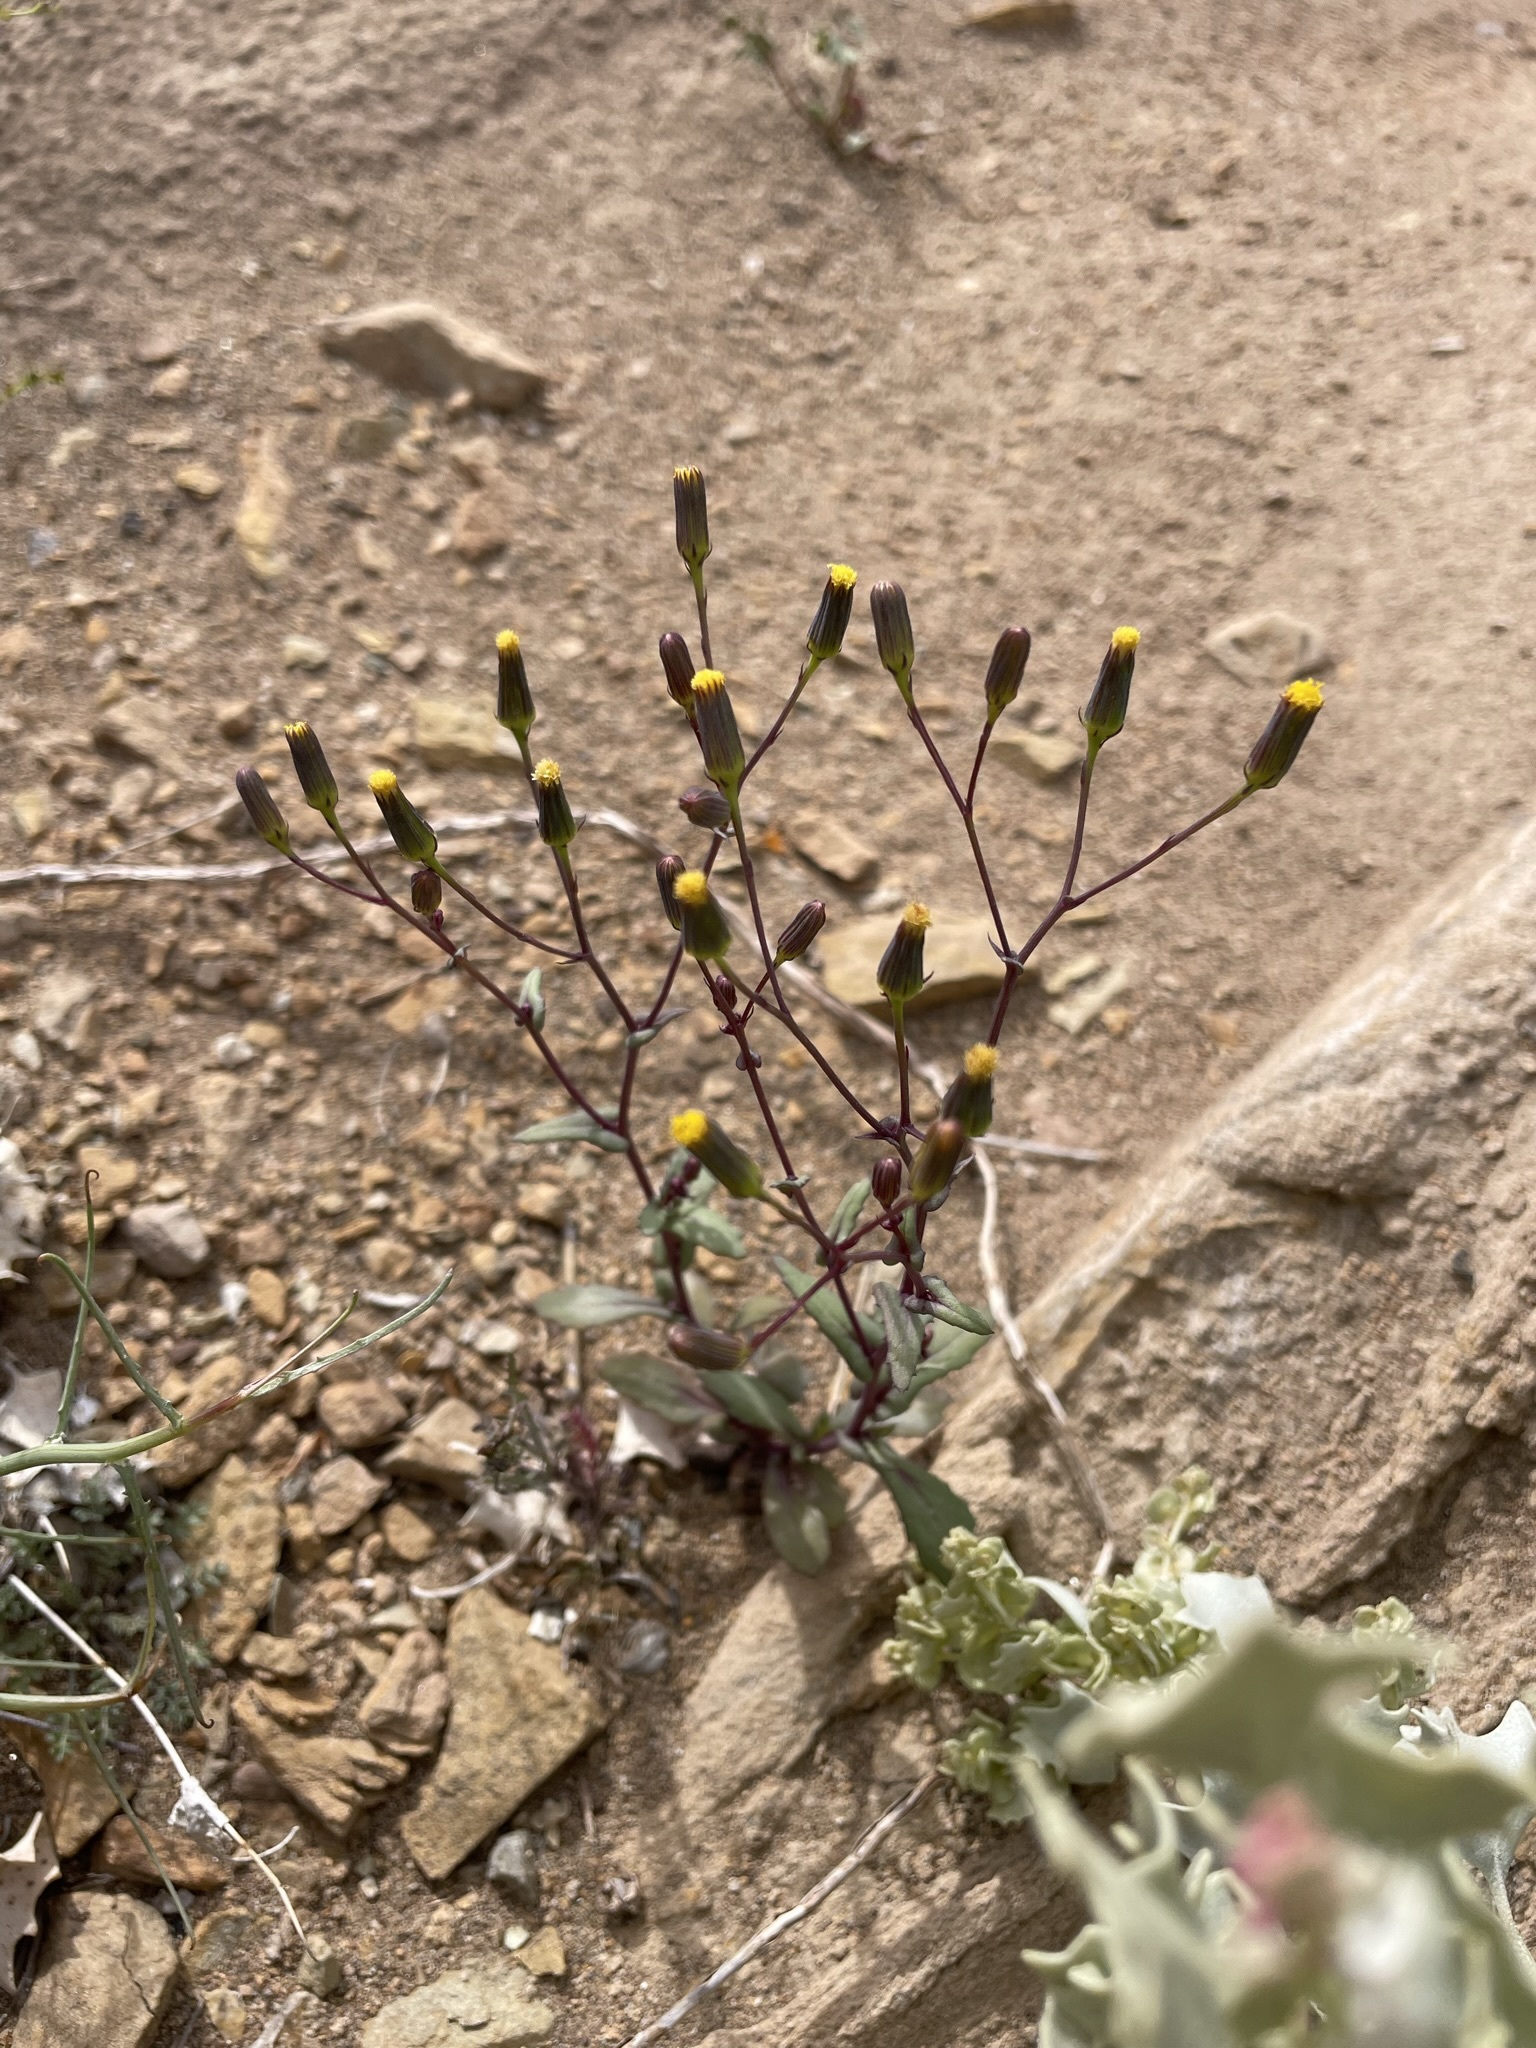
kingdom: Plantae
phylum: Tracheophyta
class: Magnoliopsida
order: Asterales
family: Asteraceae
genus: Senecio
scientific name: Senecio mohavensis
